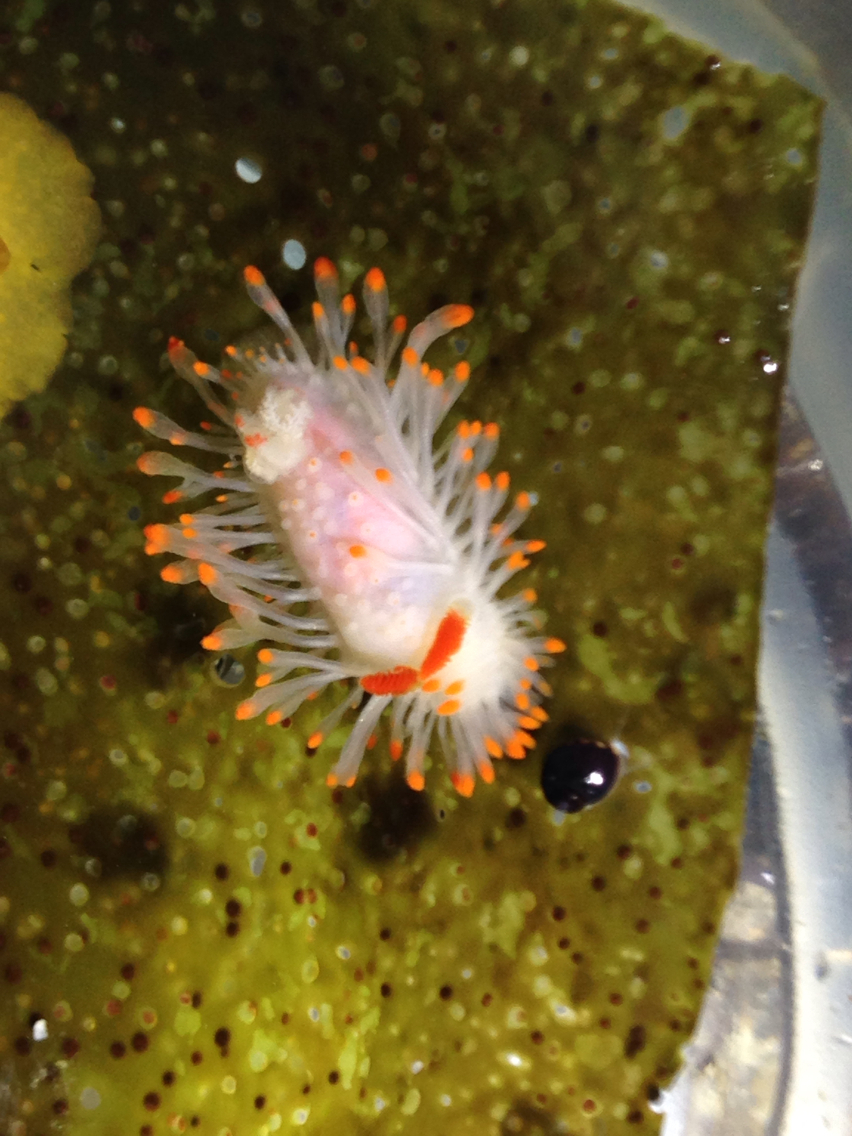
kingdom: Animalia
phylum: Mollusca
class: Gastropoda
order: Nudibranchia
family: Polyceridae
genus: Limacia
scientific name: Limacia cockerelli
